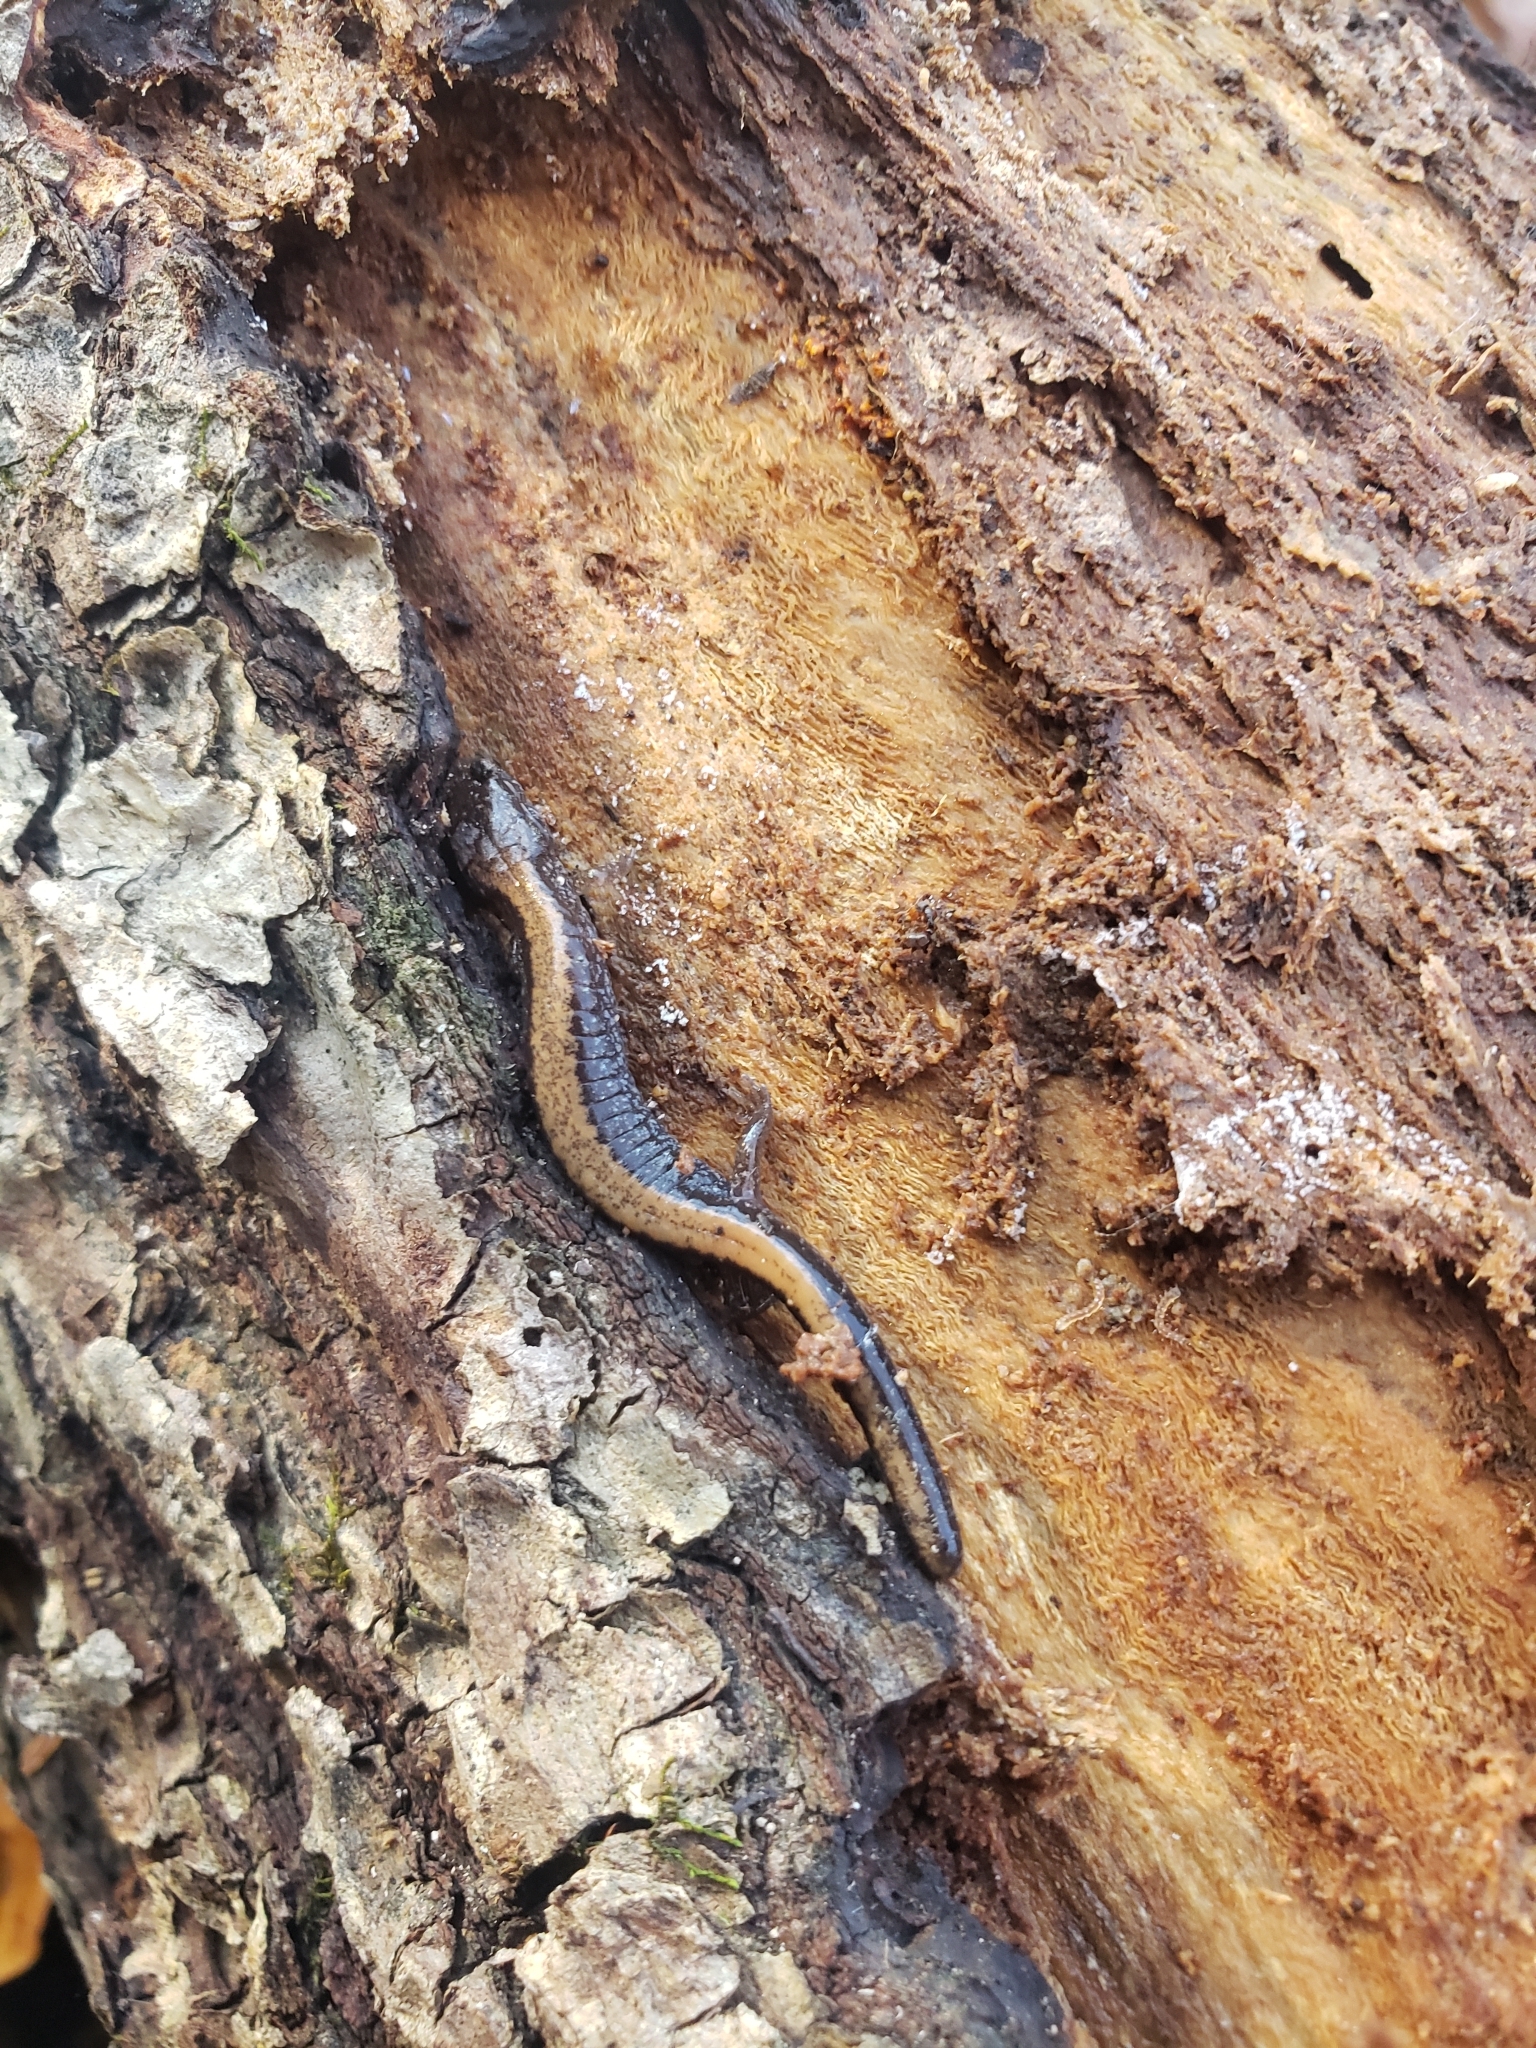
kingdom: Animalia
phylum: Chordata
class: Amphibia
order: Caudata
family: Plethodontidae
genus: Plethodon
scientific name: Plethodon cinereus
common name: Redback salamander
